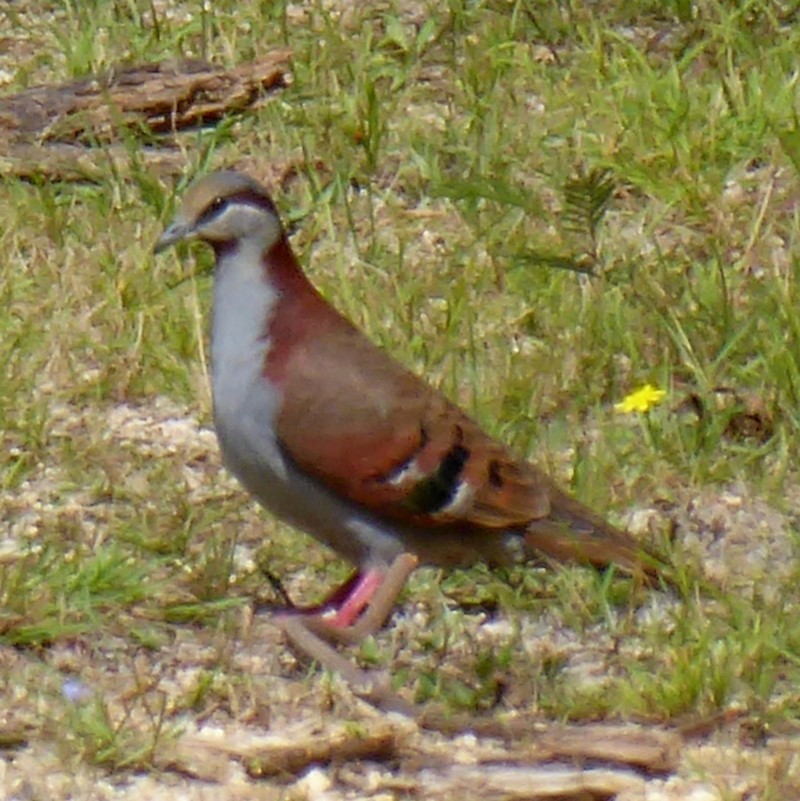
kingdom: Animalia
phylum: Chordata
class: Aves
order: Columbiformes
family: Columbidae
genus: Phaps
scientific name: Phaps elegans
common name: Brush bronzewing
